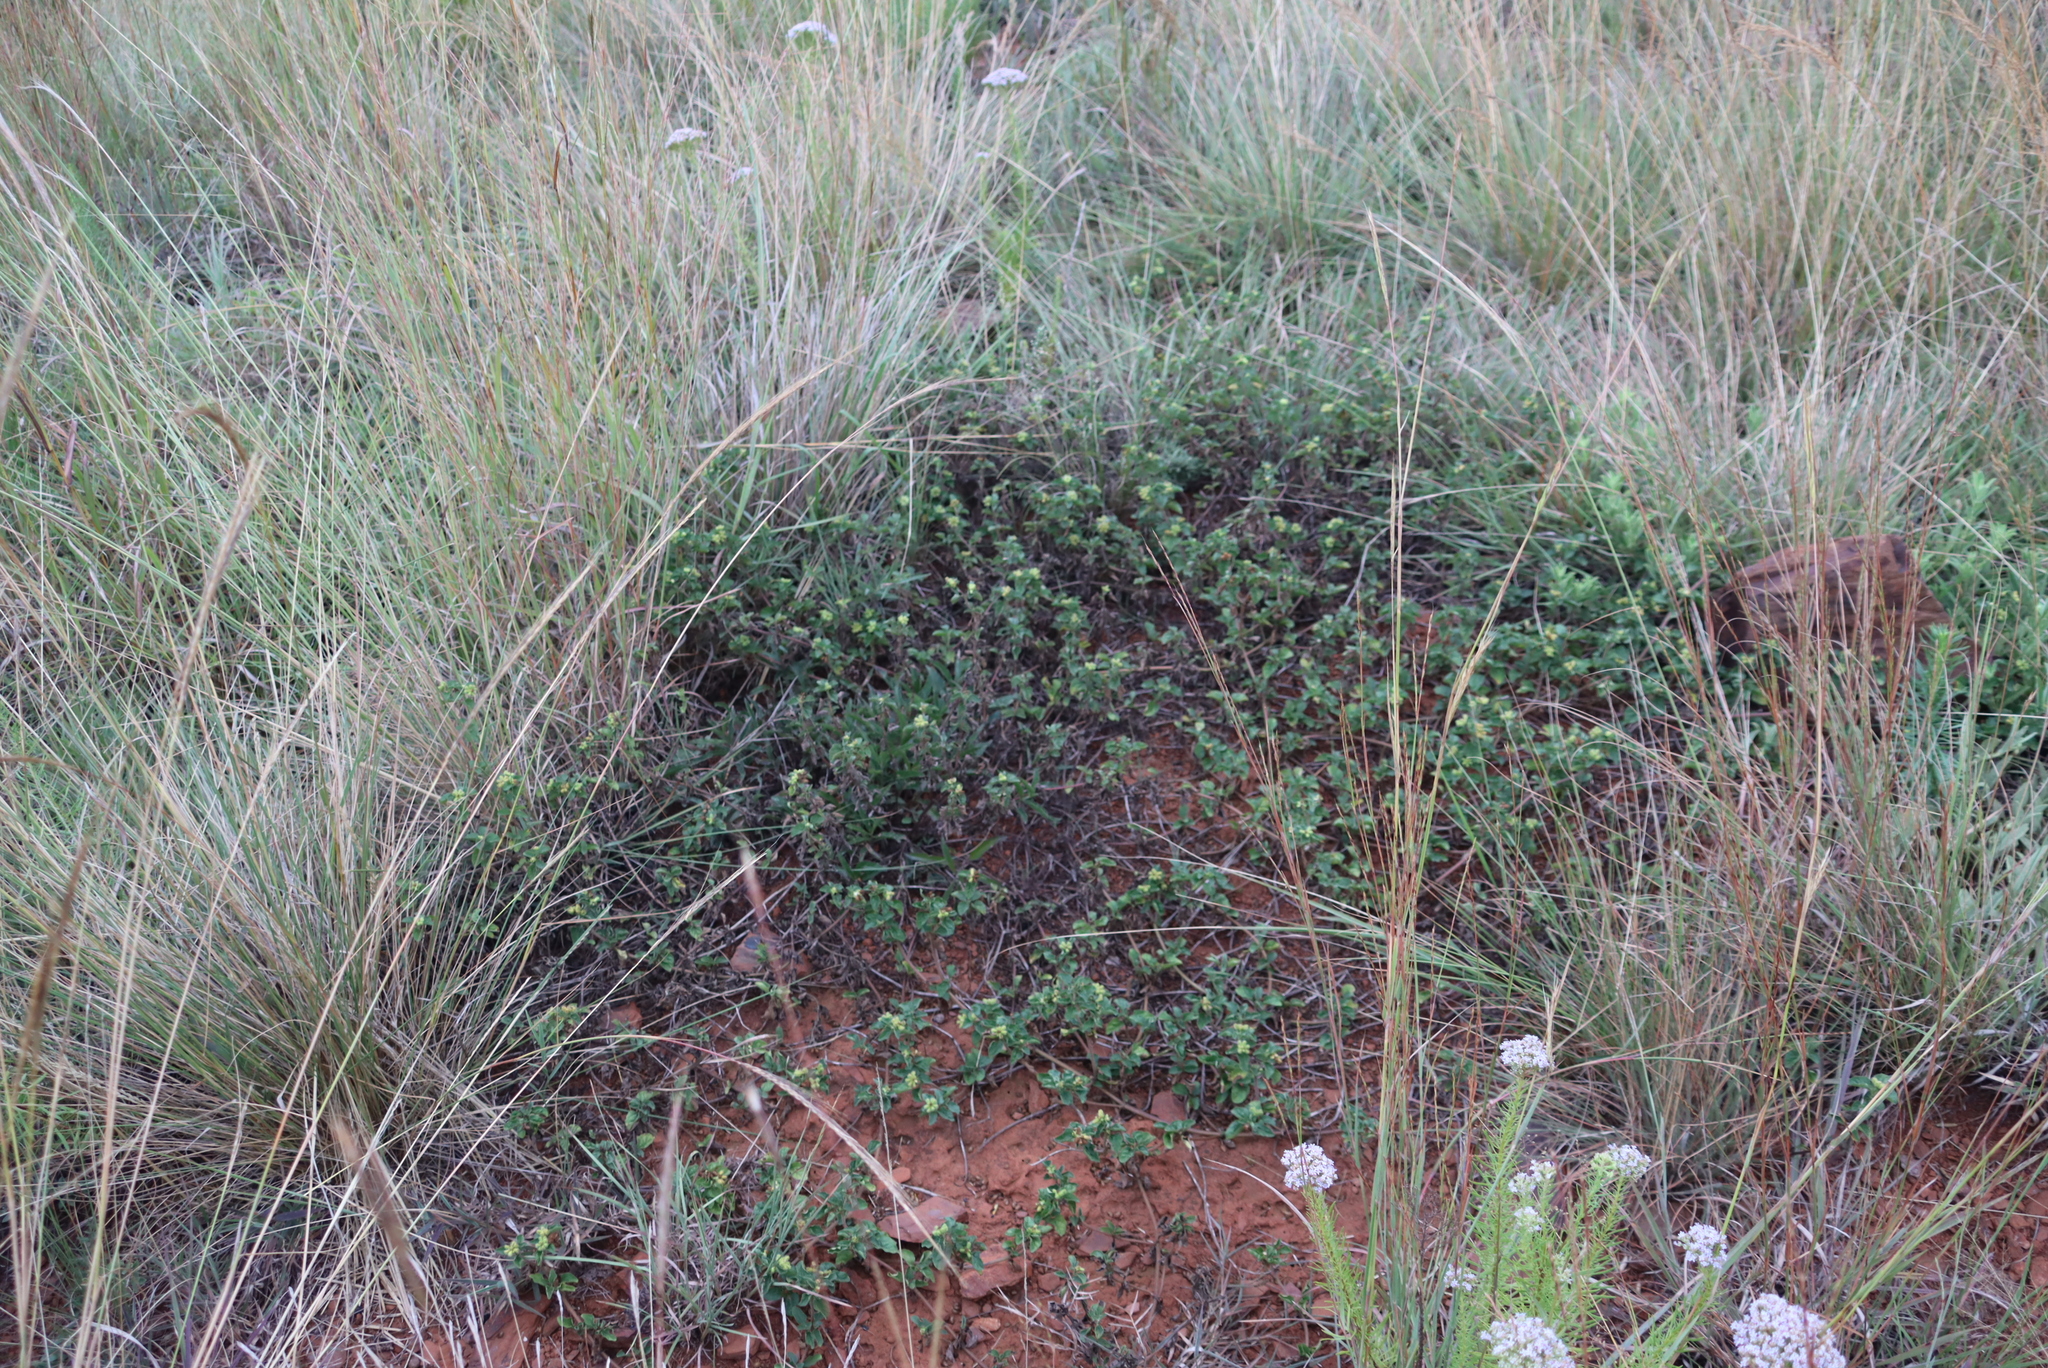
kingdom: Plantae
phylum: Tracheophyta
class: Magnoliopsida
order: Asterales
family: Asteraceae
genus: Acanthospermum
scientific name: Acanthospermum australe
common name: Paraguayan starbur
